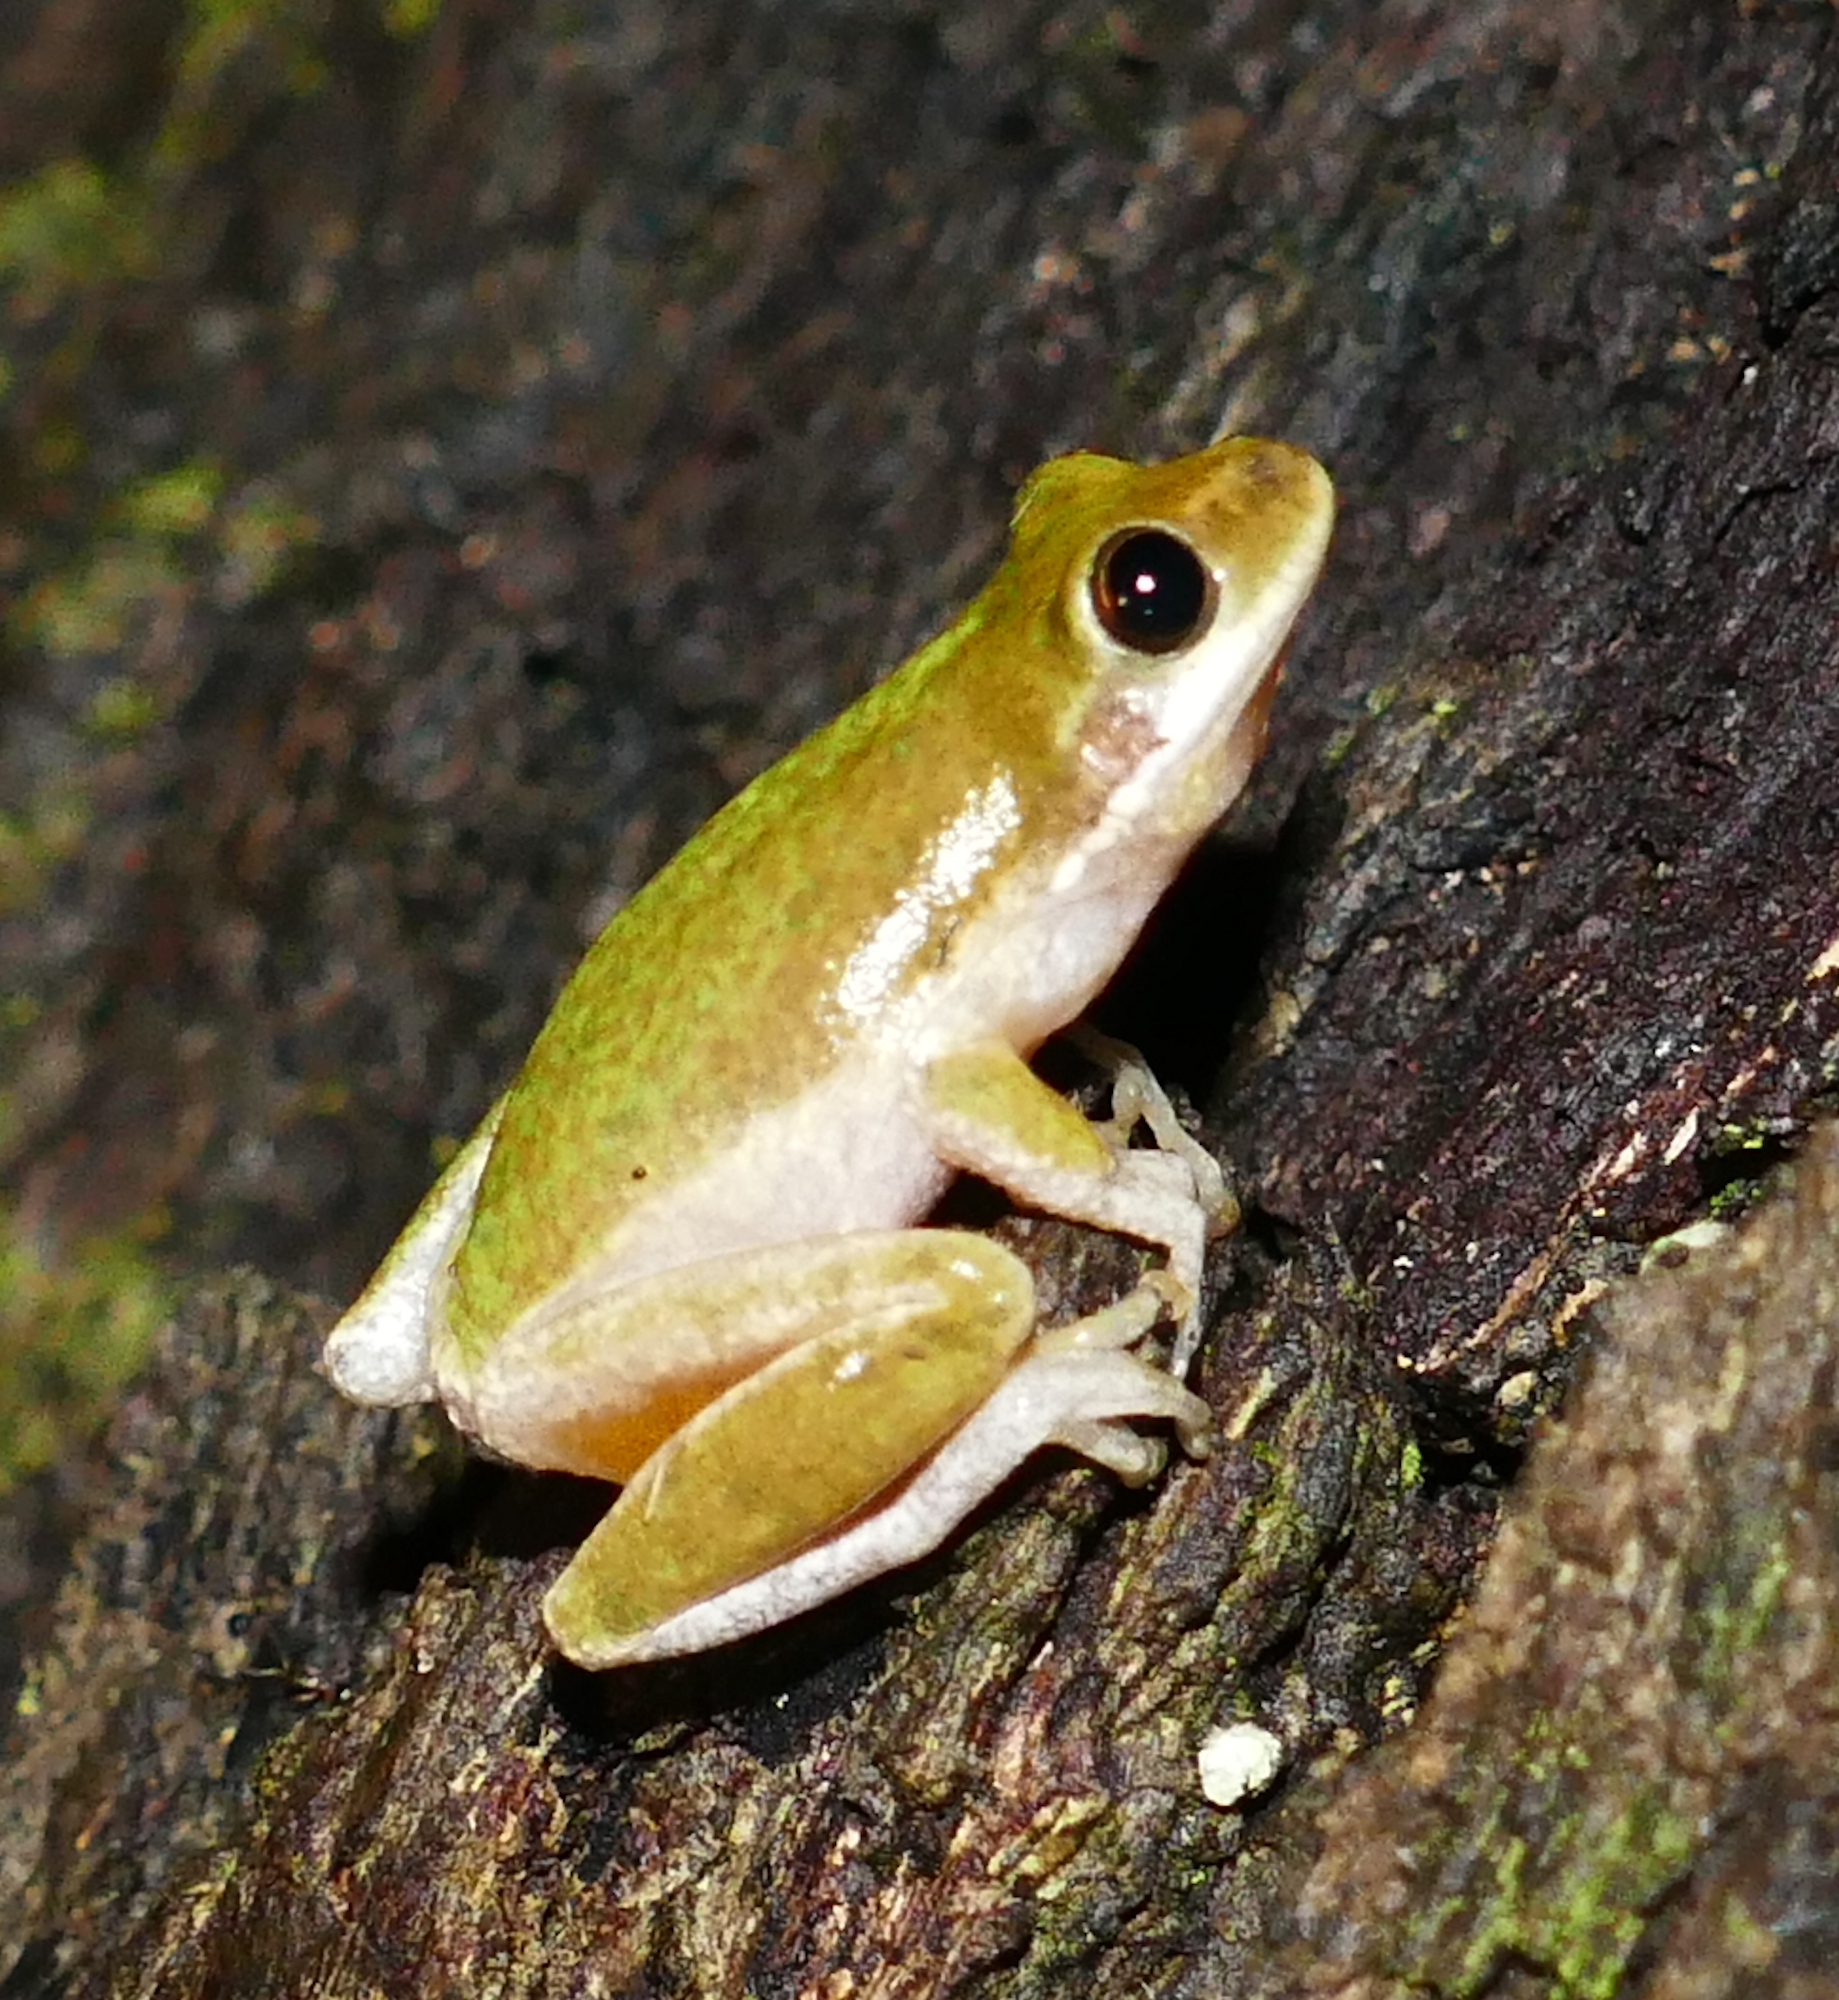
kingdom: Animalia
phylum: Chordata
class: Amphibia
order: Anura
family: Hylidae
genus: Dryophytes
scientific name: Dryophytes squirellus
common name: Squirrel treefrog
